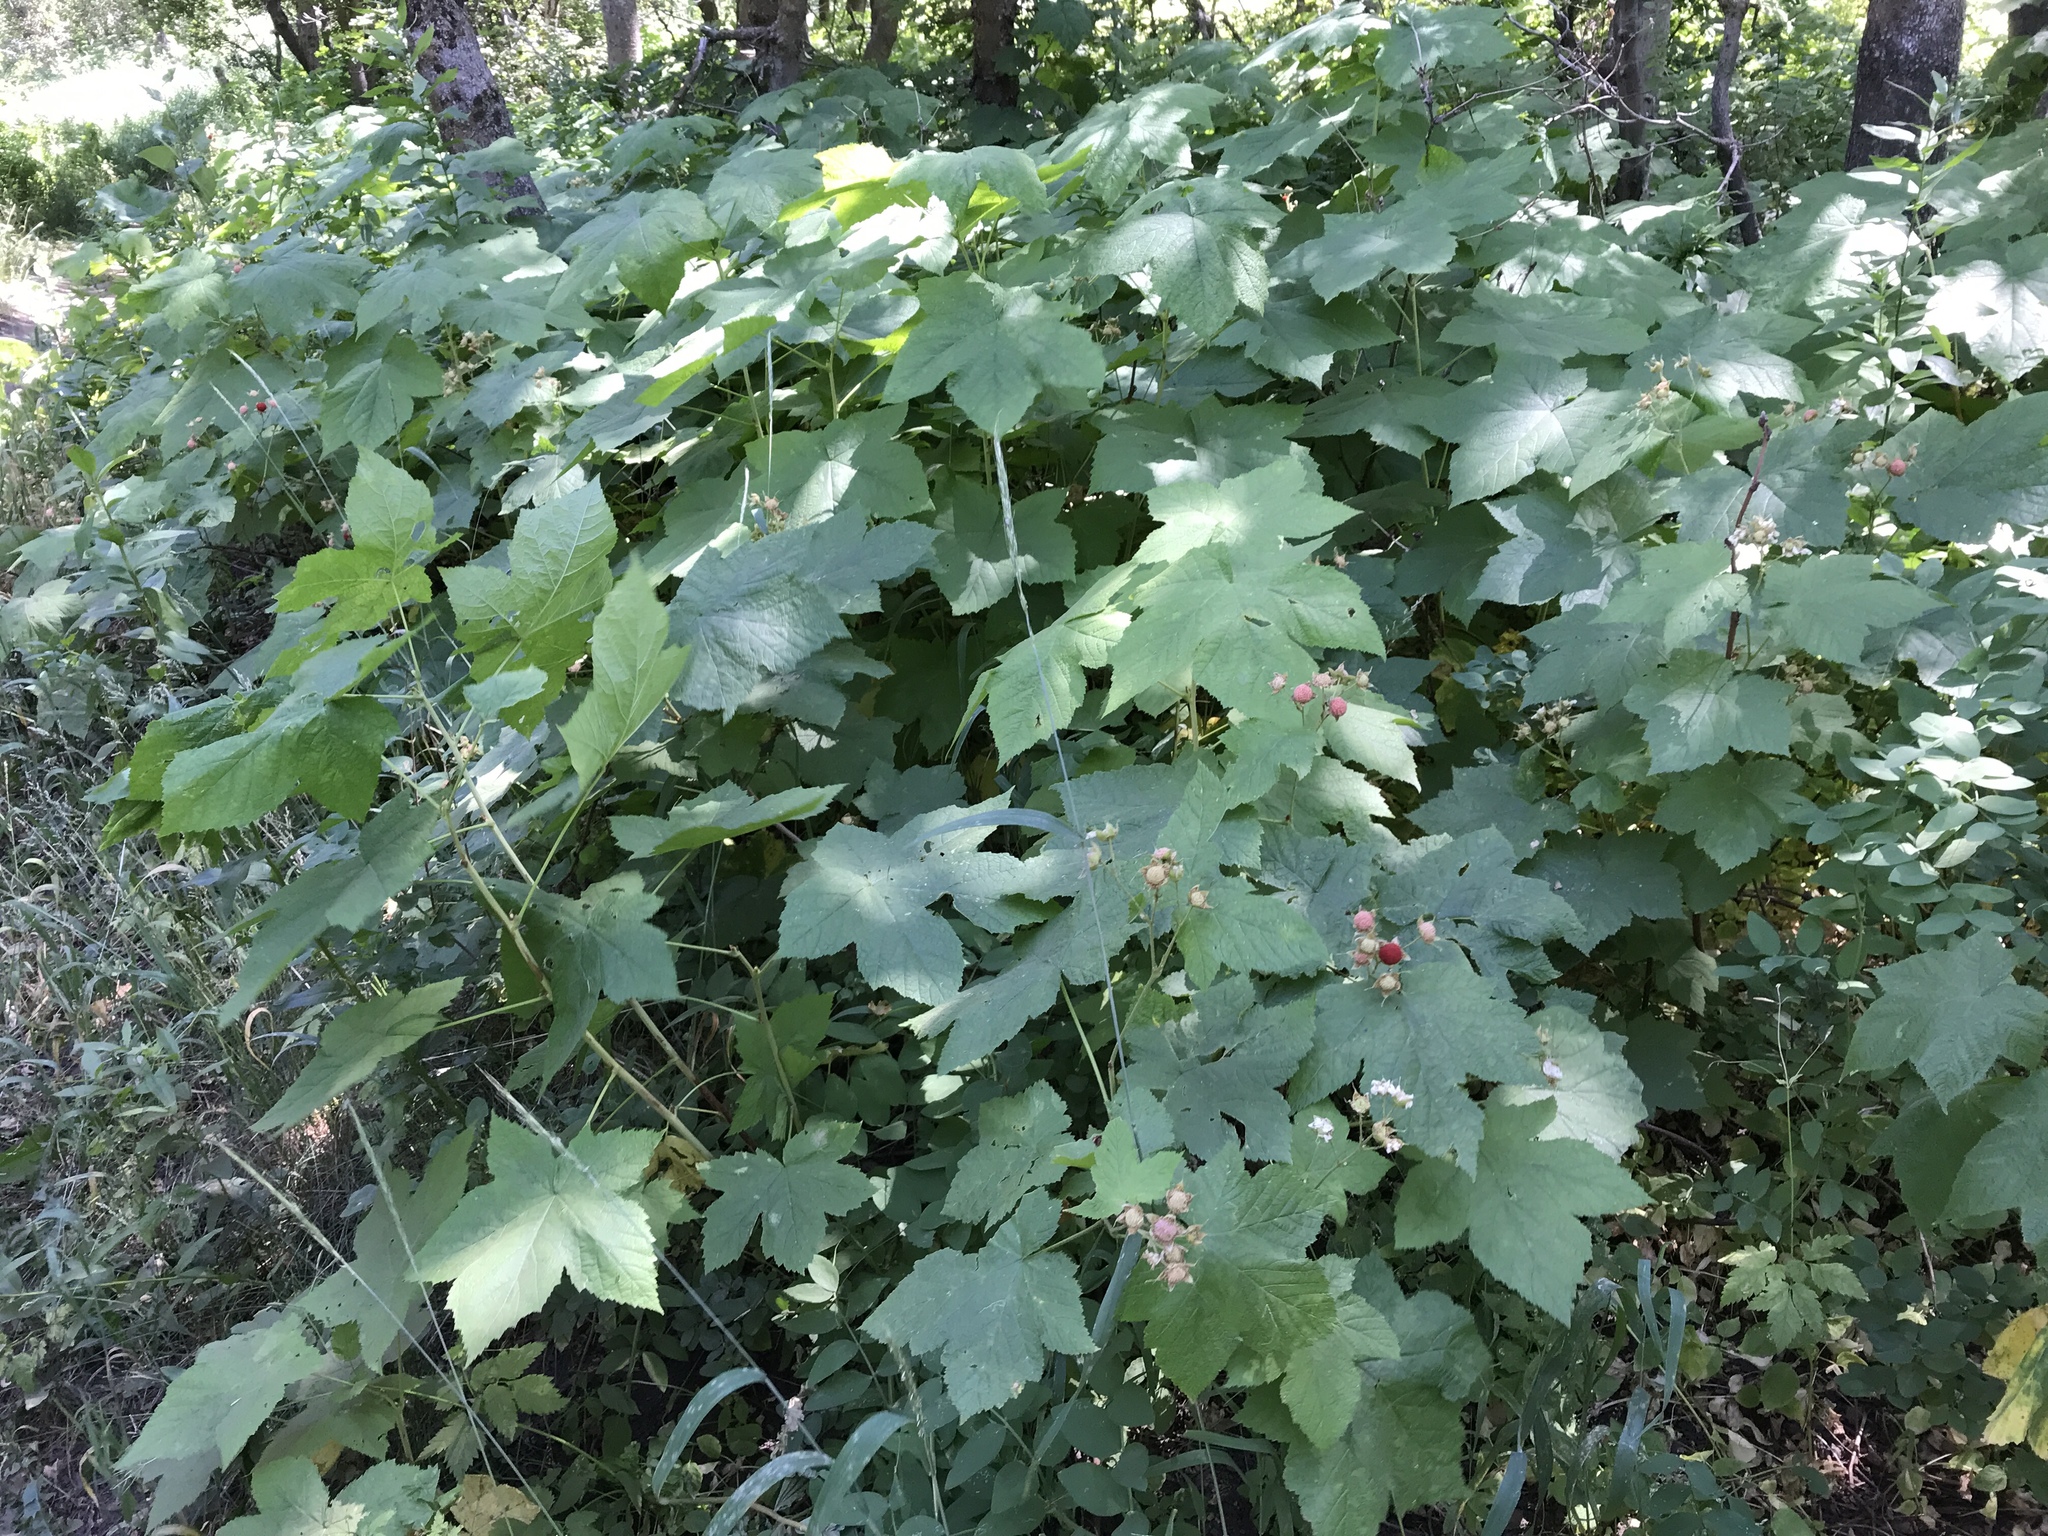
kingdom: Plantae
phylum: Tracheophyta
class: Magnoliopsida
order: Rosales
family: Rosaceae
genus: Rubus
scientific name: Rubus parviflorus
